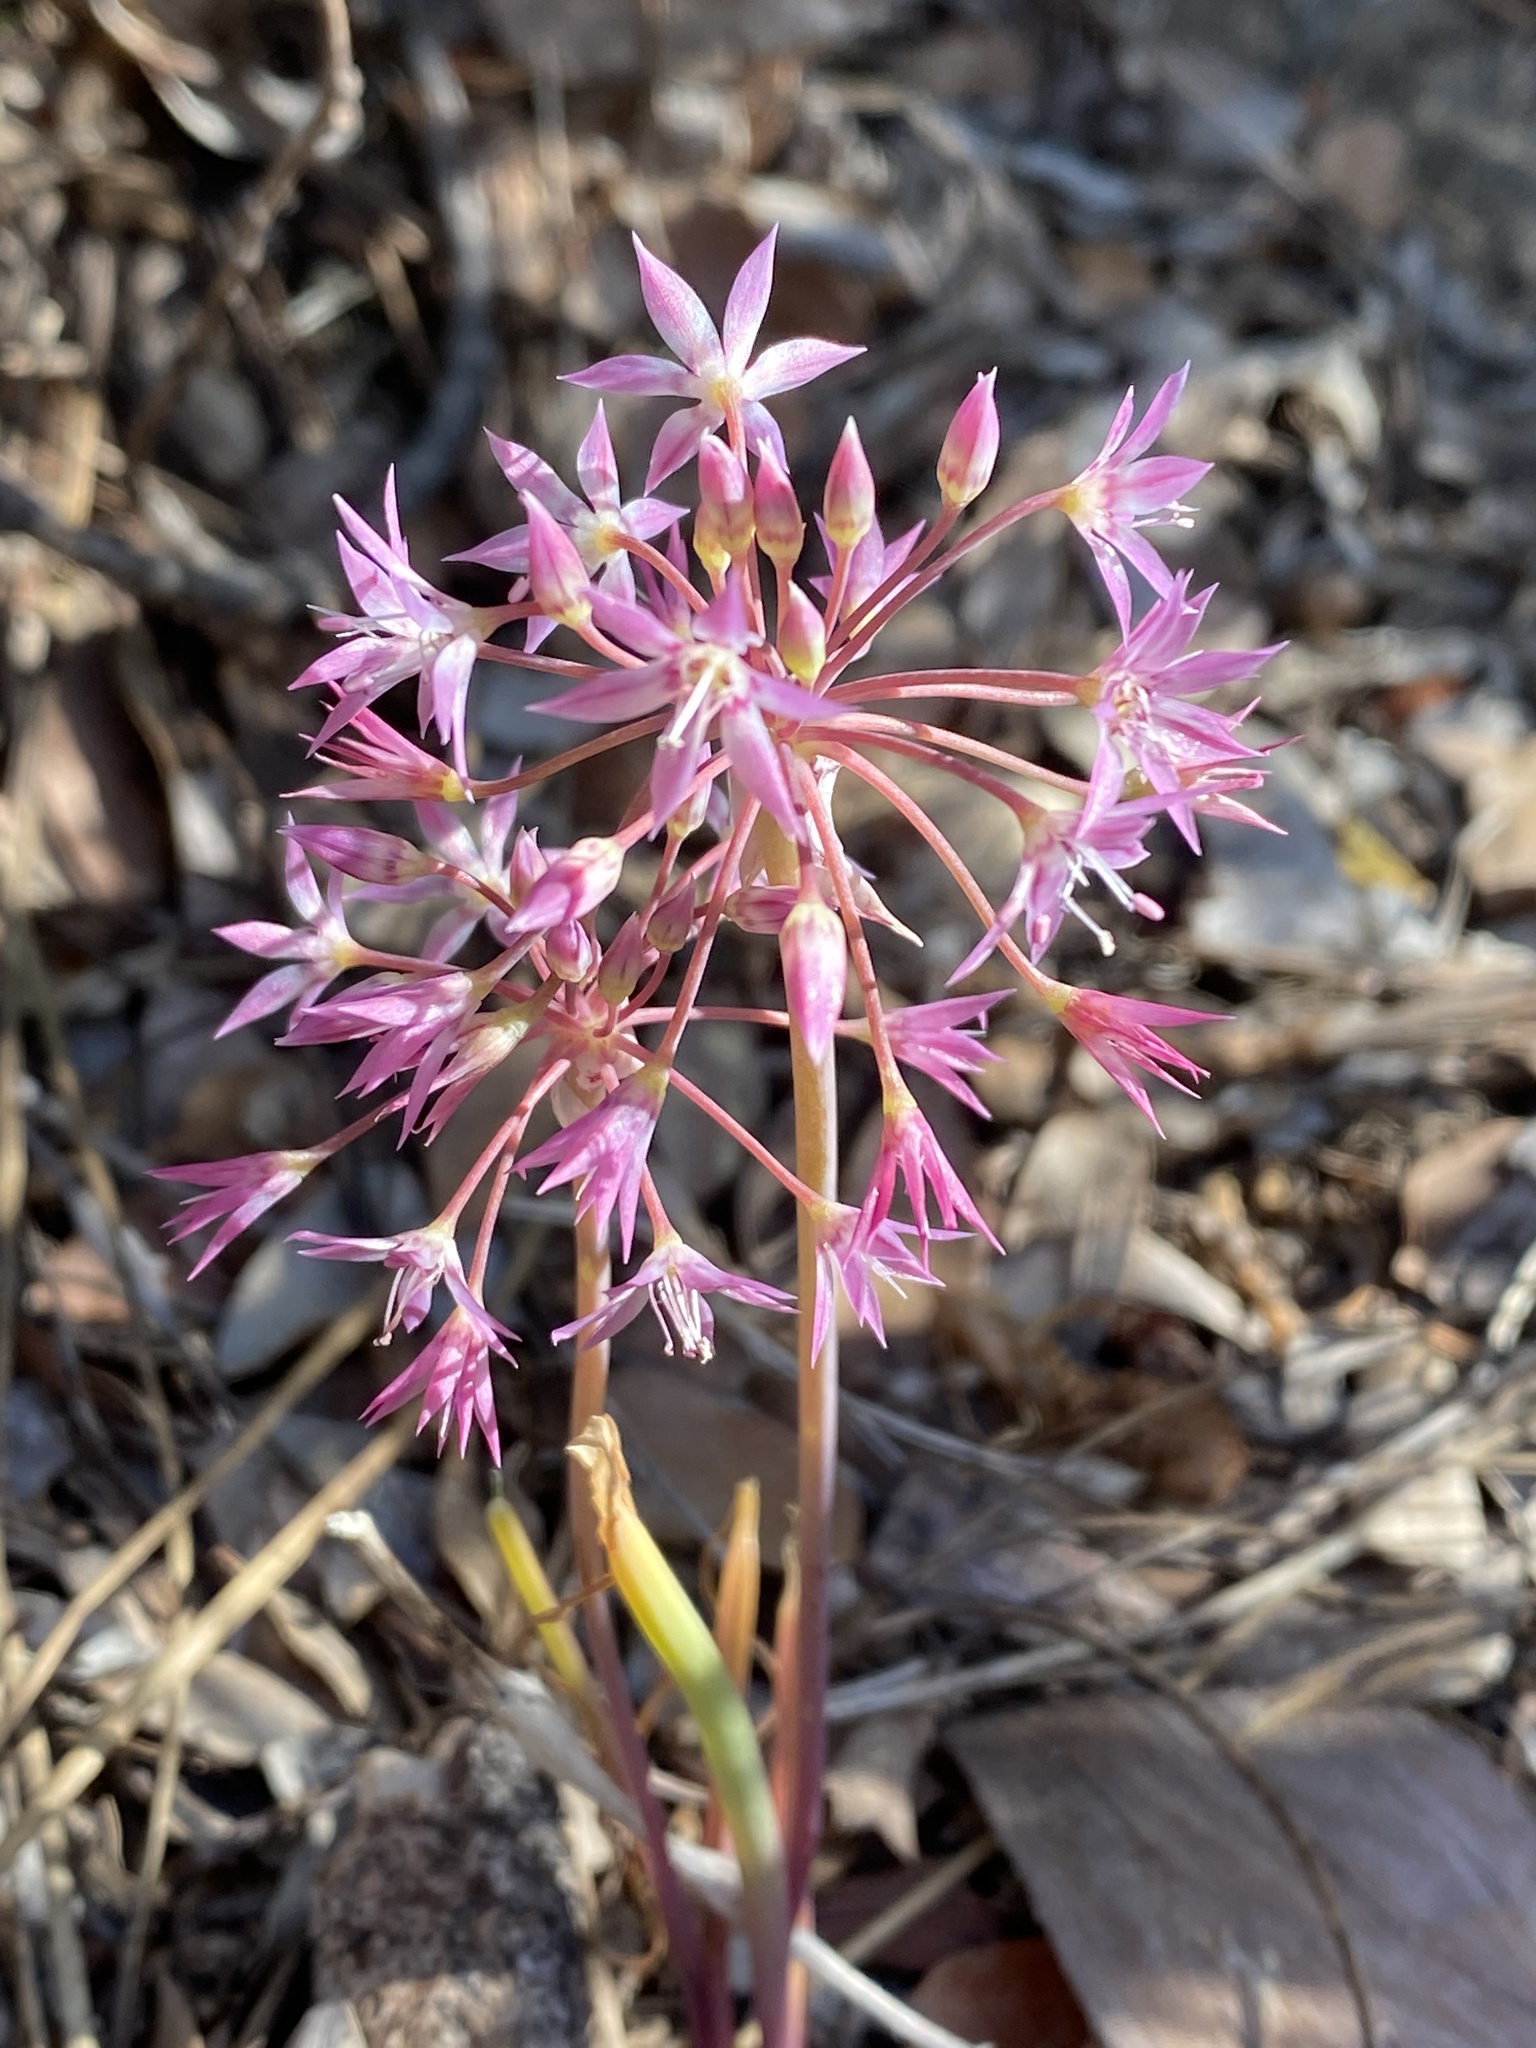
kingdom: Plantae
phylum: Tracheophyta
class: Liliopsida
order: Asparagales
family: Amaryllidaceae
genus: Allium
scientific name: Allium campanulatum
